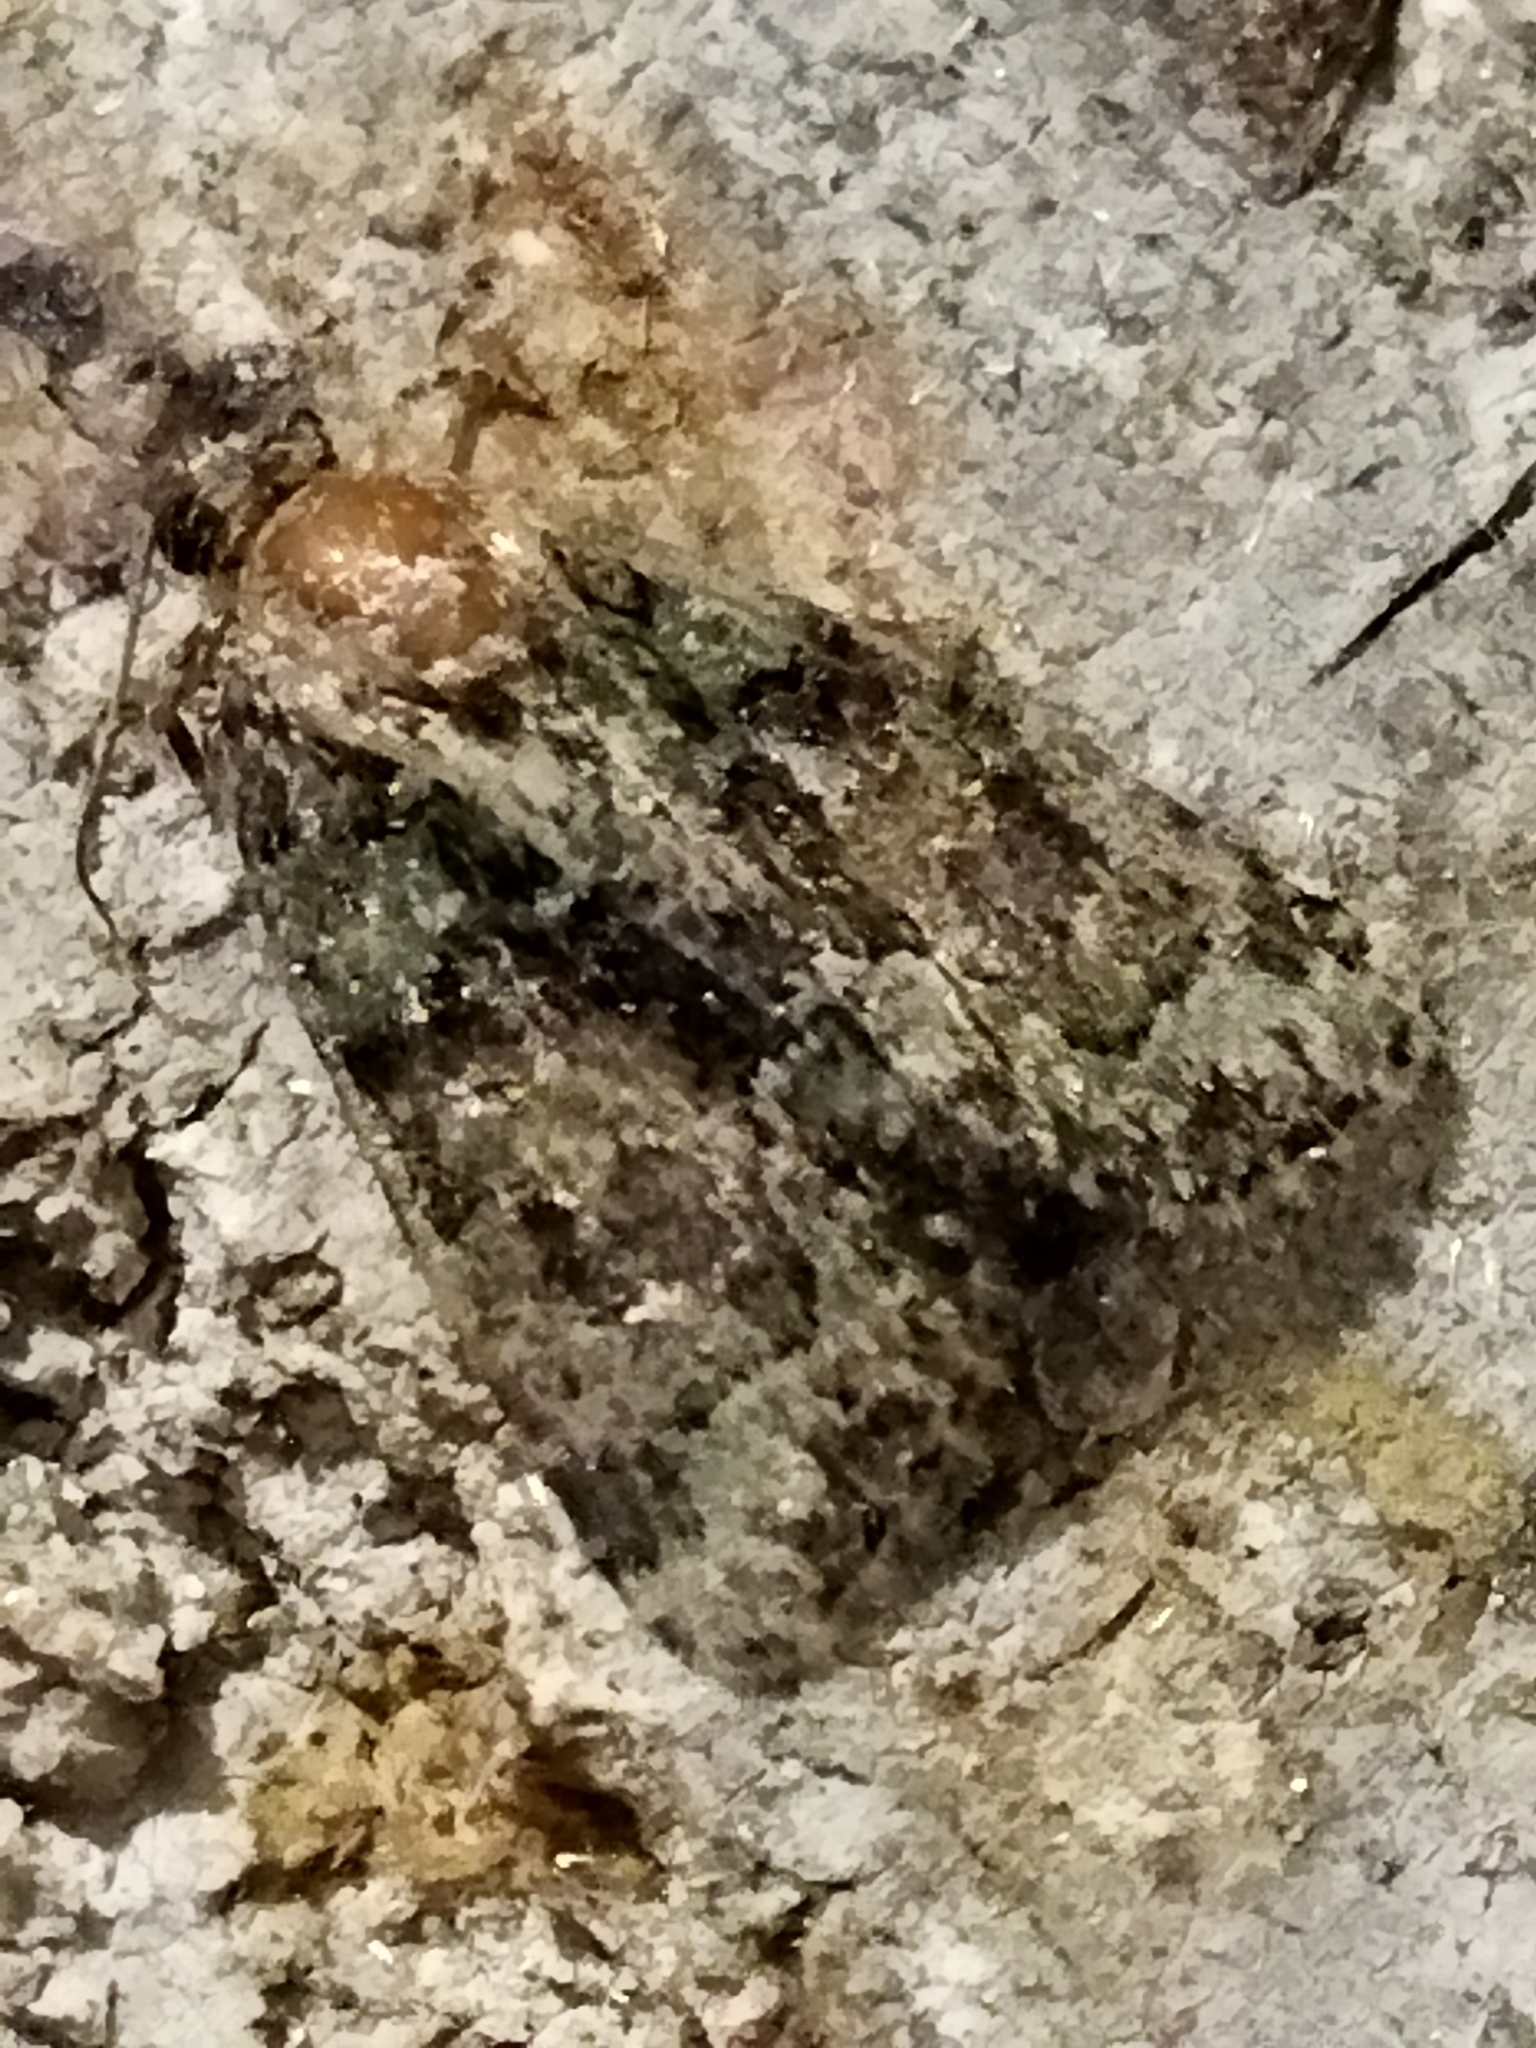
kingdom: Animalia
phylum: Arthropoda
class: Insecta
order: Lepidoptera
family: Noctuidae
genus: Cryphia
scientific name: Cryphia
